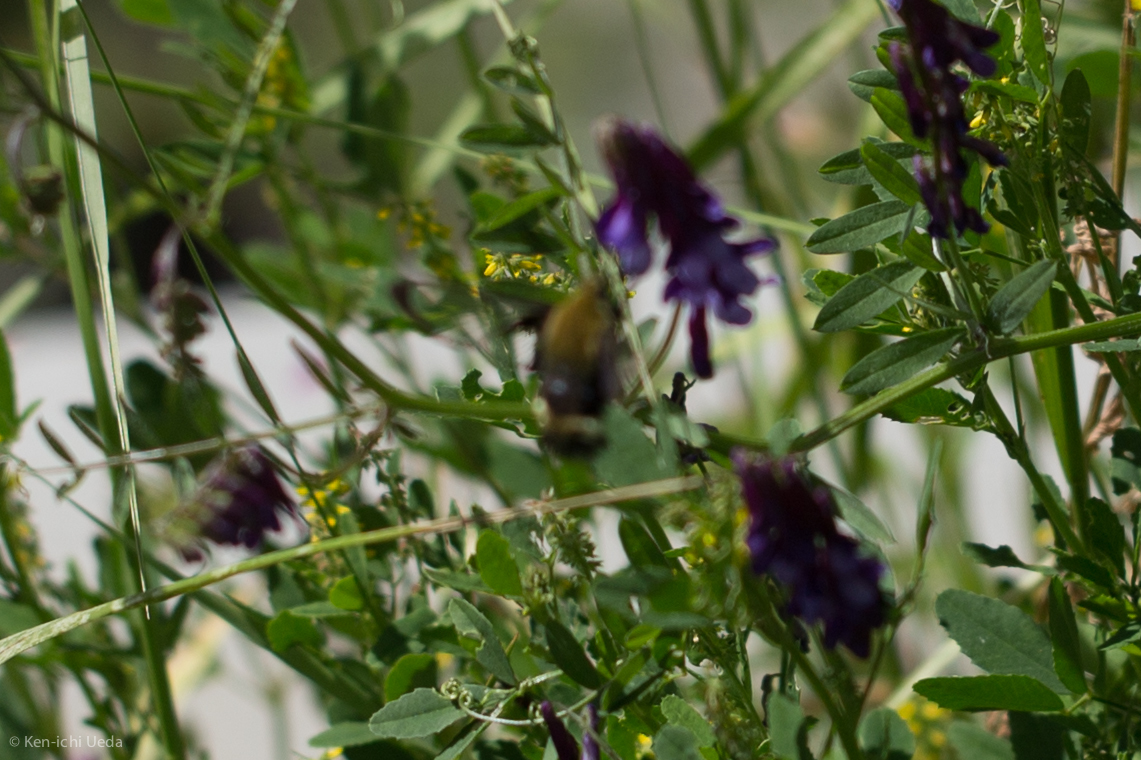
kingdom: Animalia
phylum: Arthropoda
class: Insecta
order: Lepidoptera
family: Sphingidae
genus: Hemaris
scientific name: Hemaris thetis
